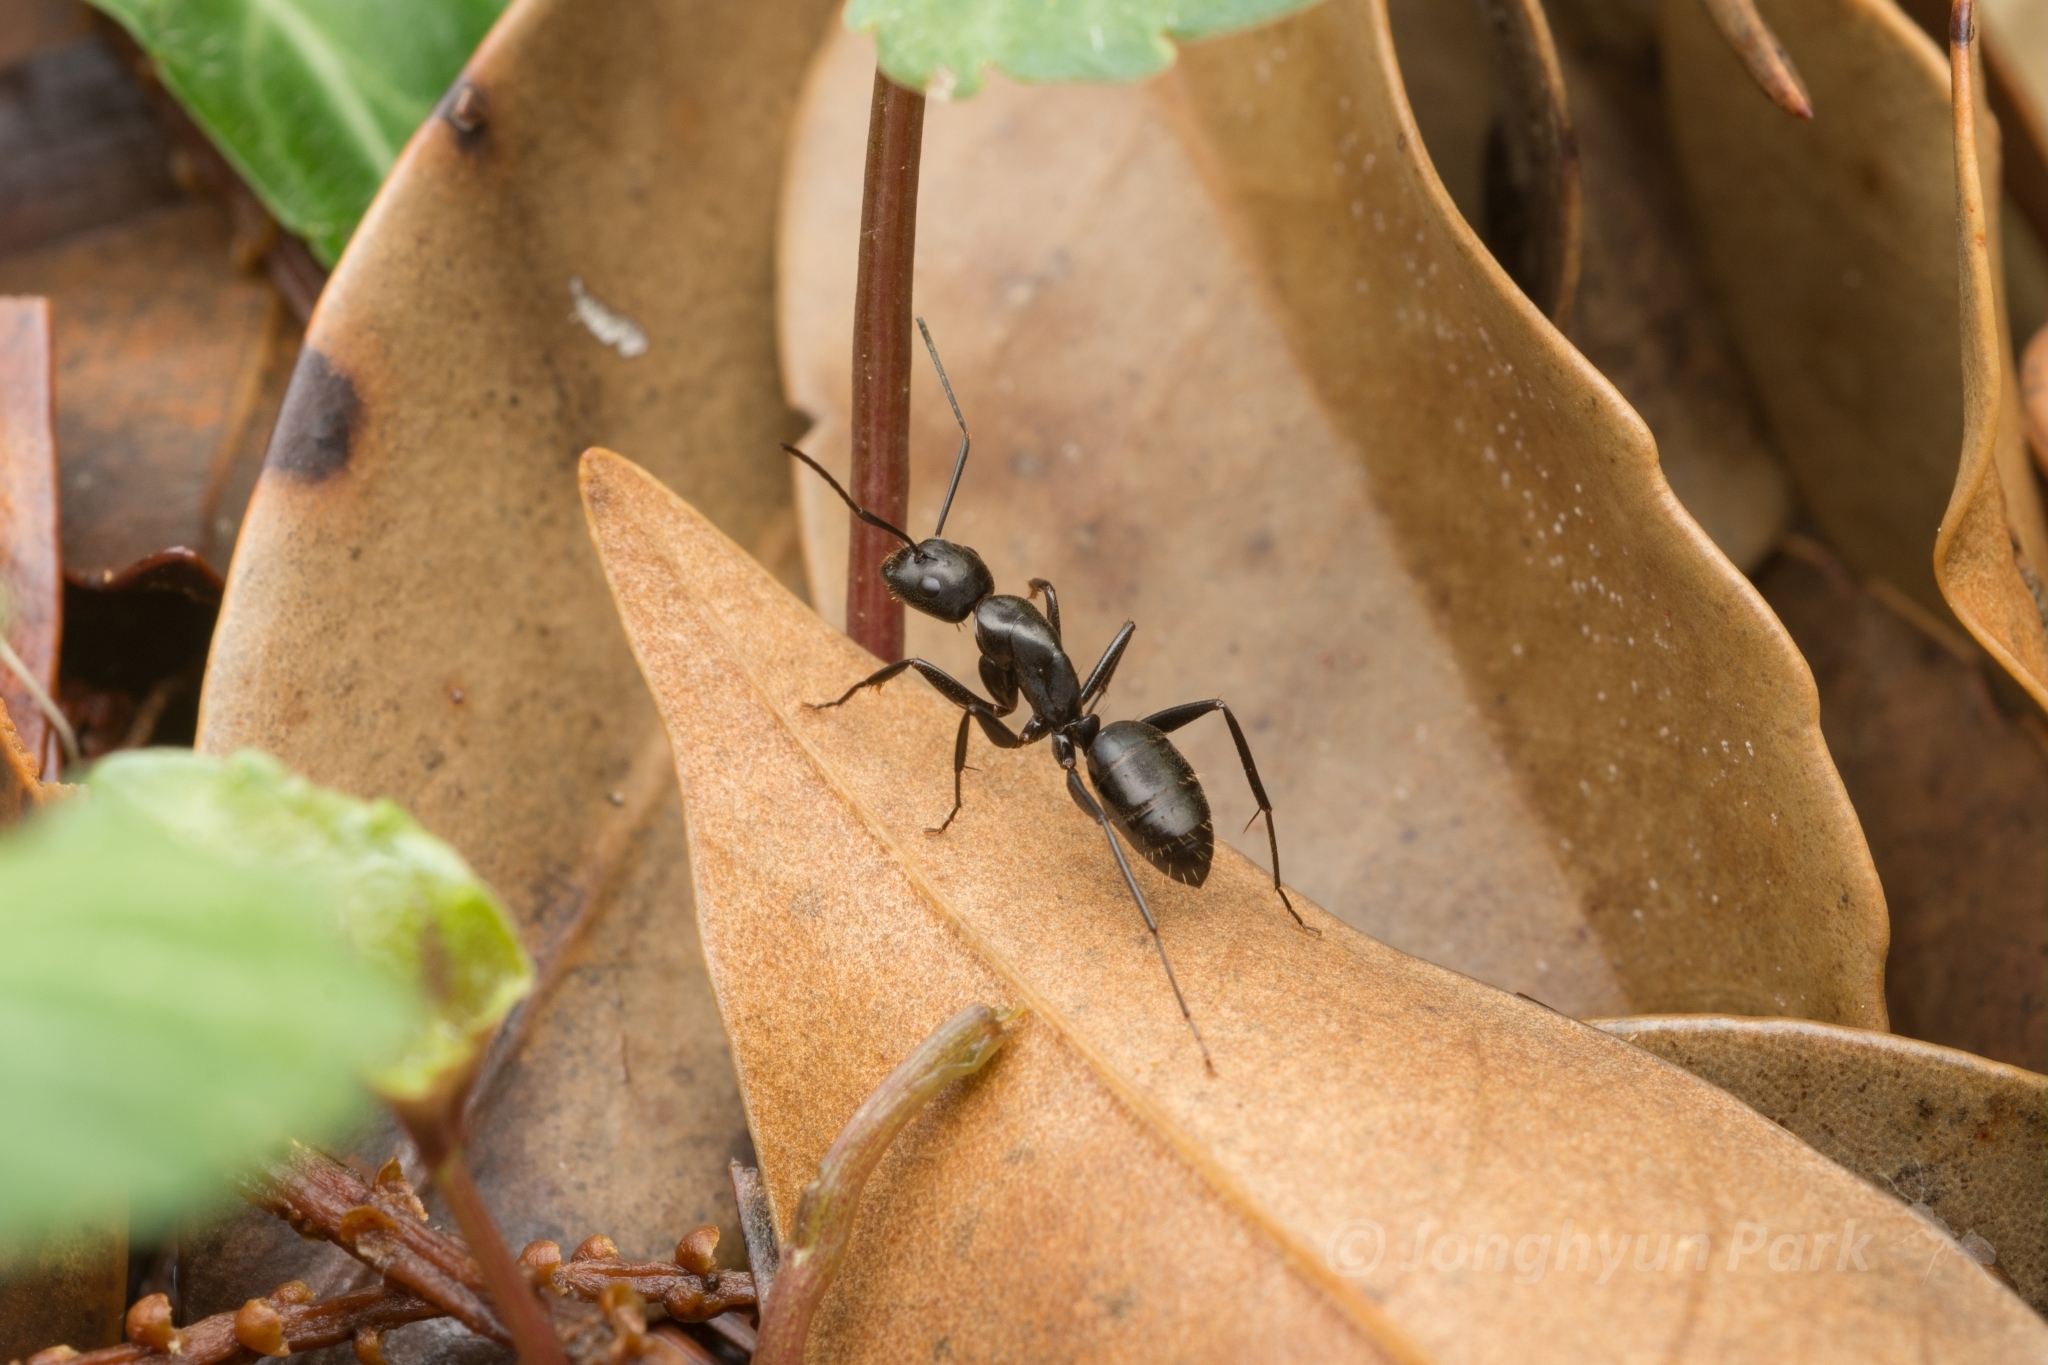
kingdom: Animalia
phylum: Arthropoda
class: Insecta
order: Hymenoptera
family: Formicidae
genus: Camponotus
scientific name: Camponotus concavus
